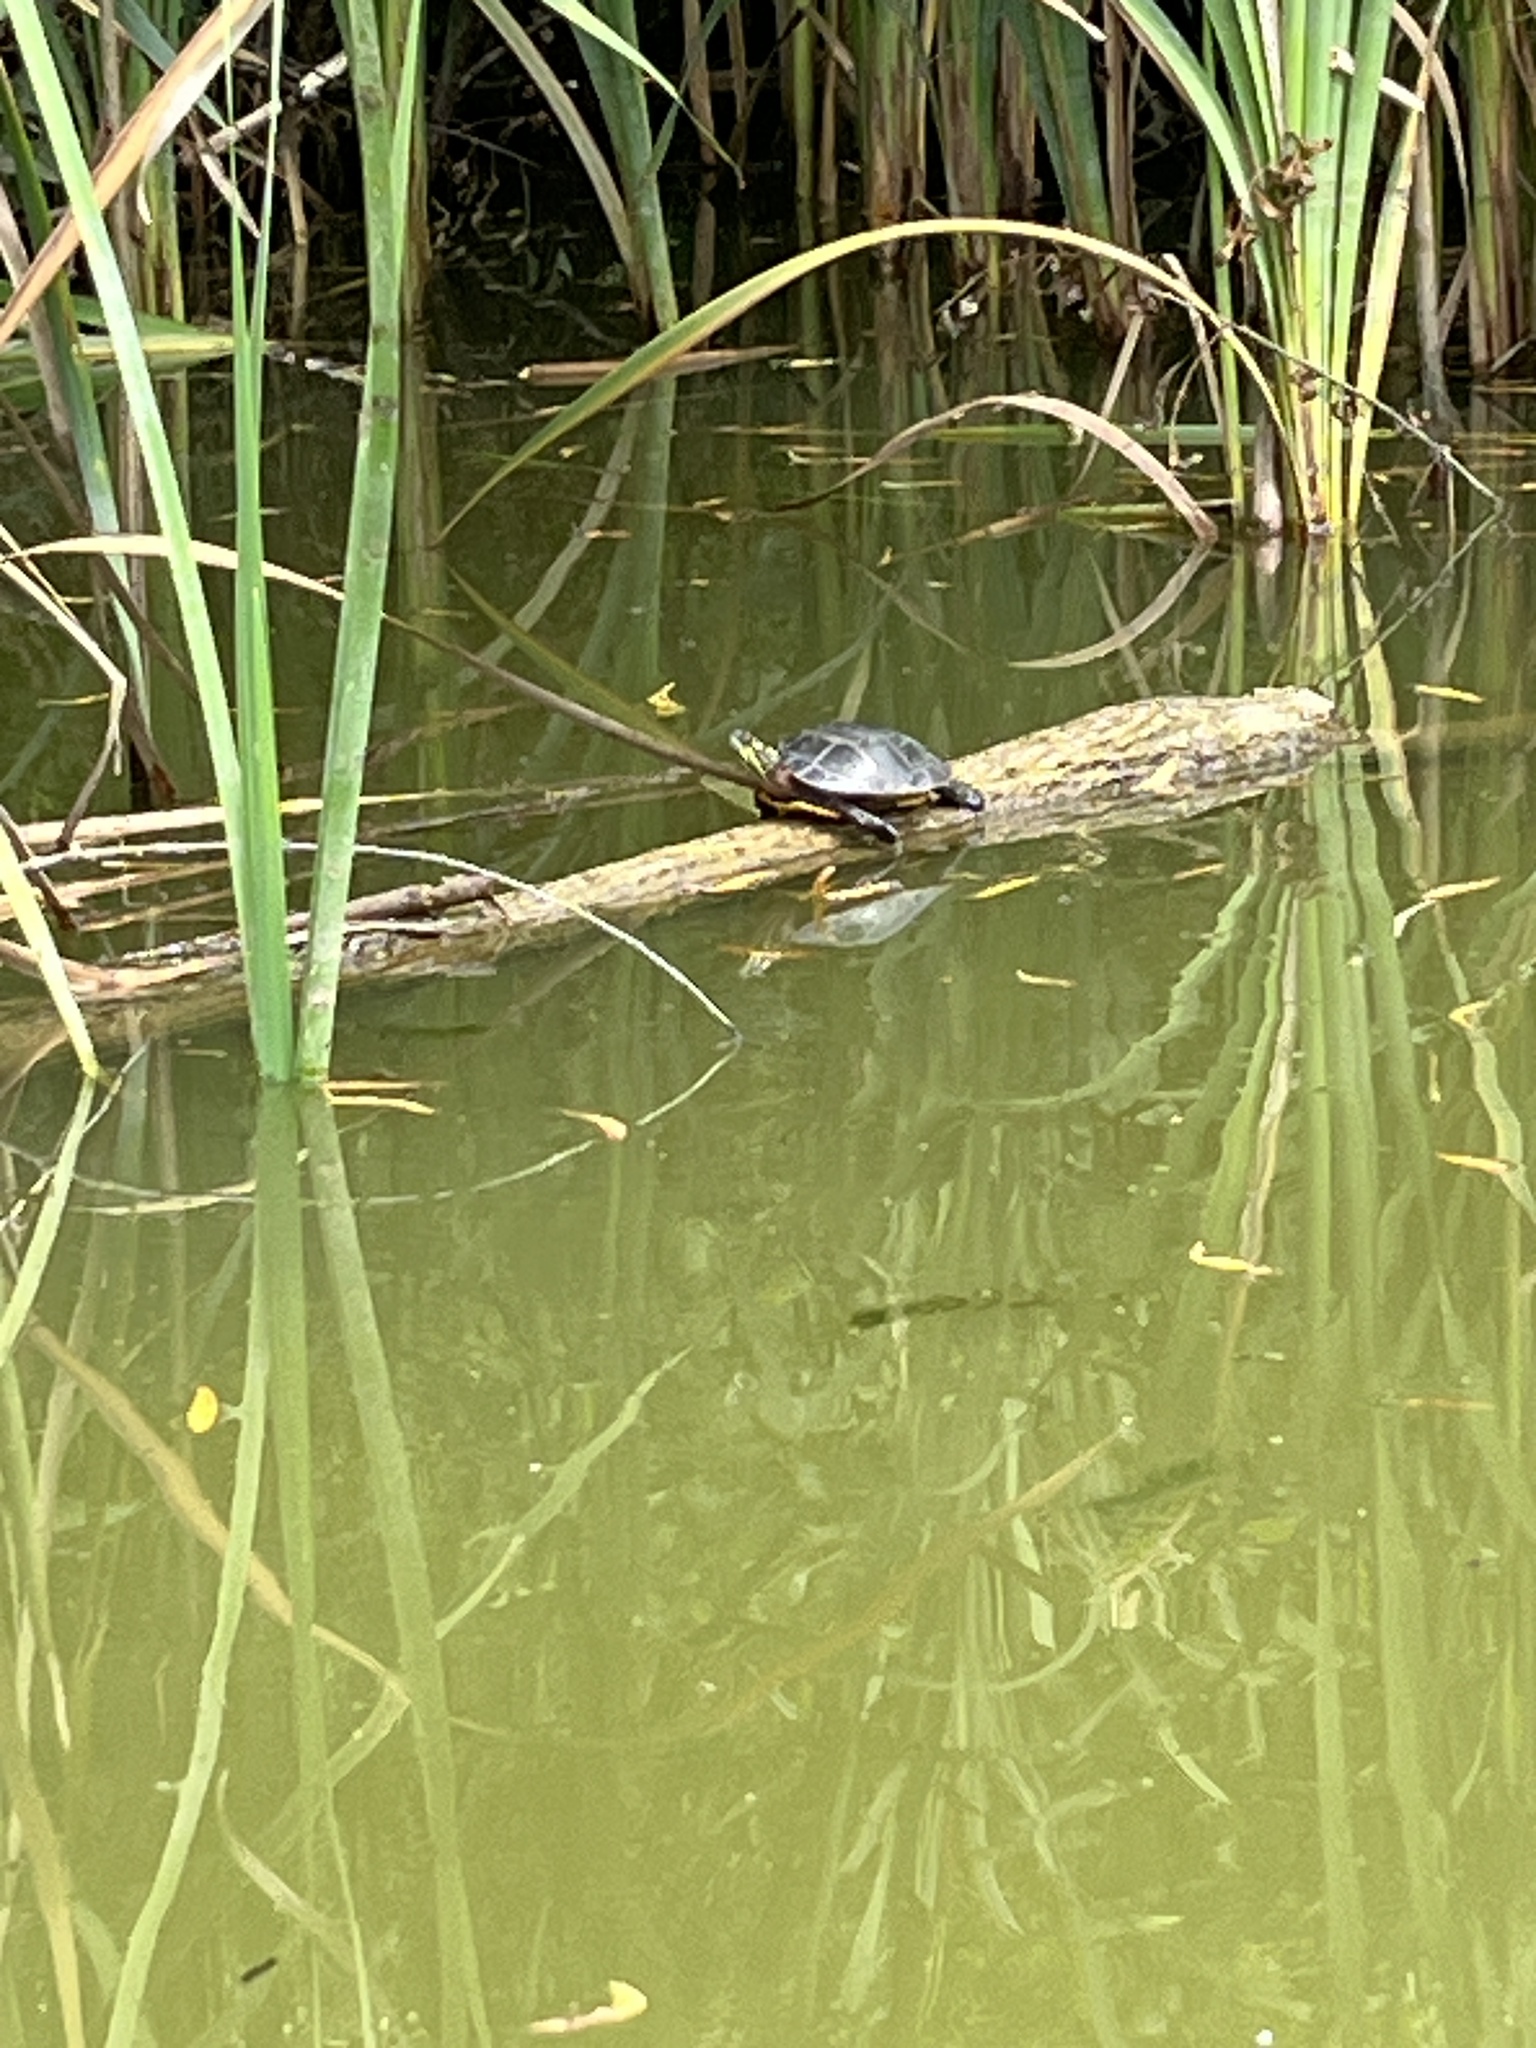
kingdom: Animalia
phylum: Chordata
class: Testudines
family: Emydidae
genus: Chrysemys
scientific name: Chrysemys picta
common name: Painted turtle
